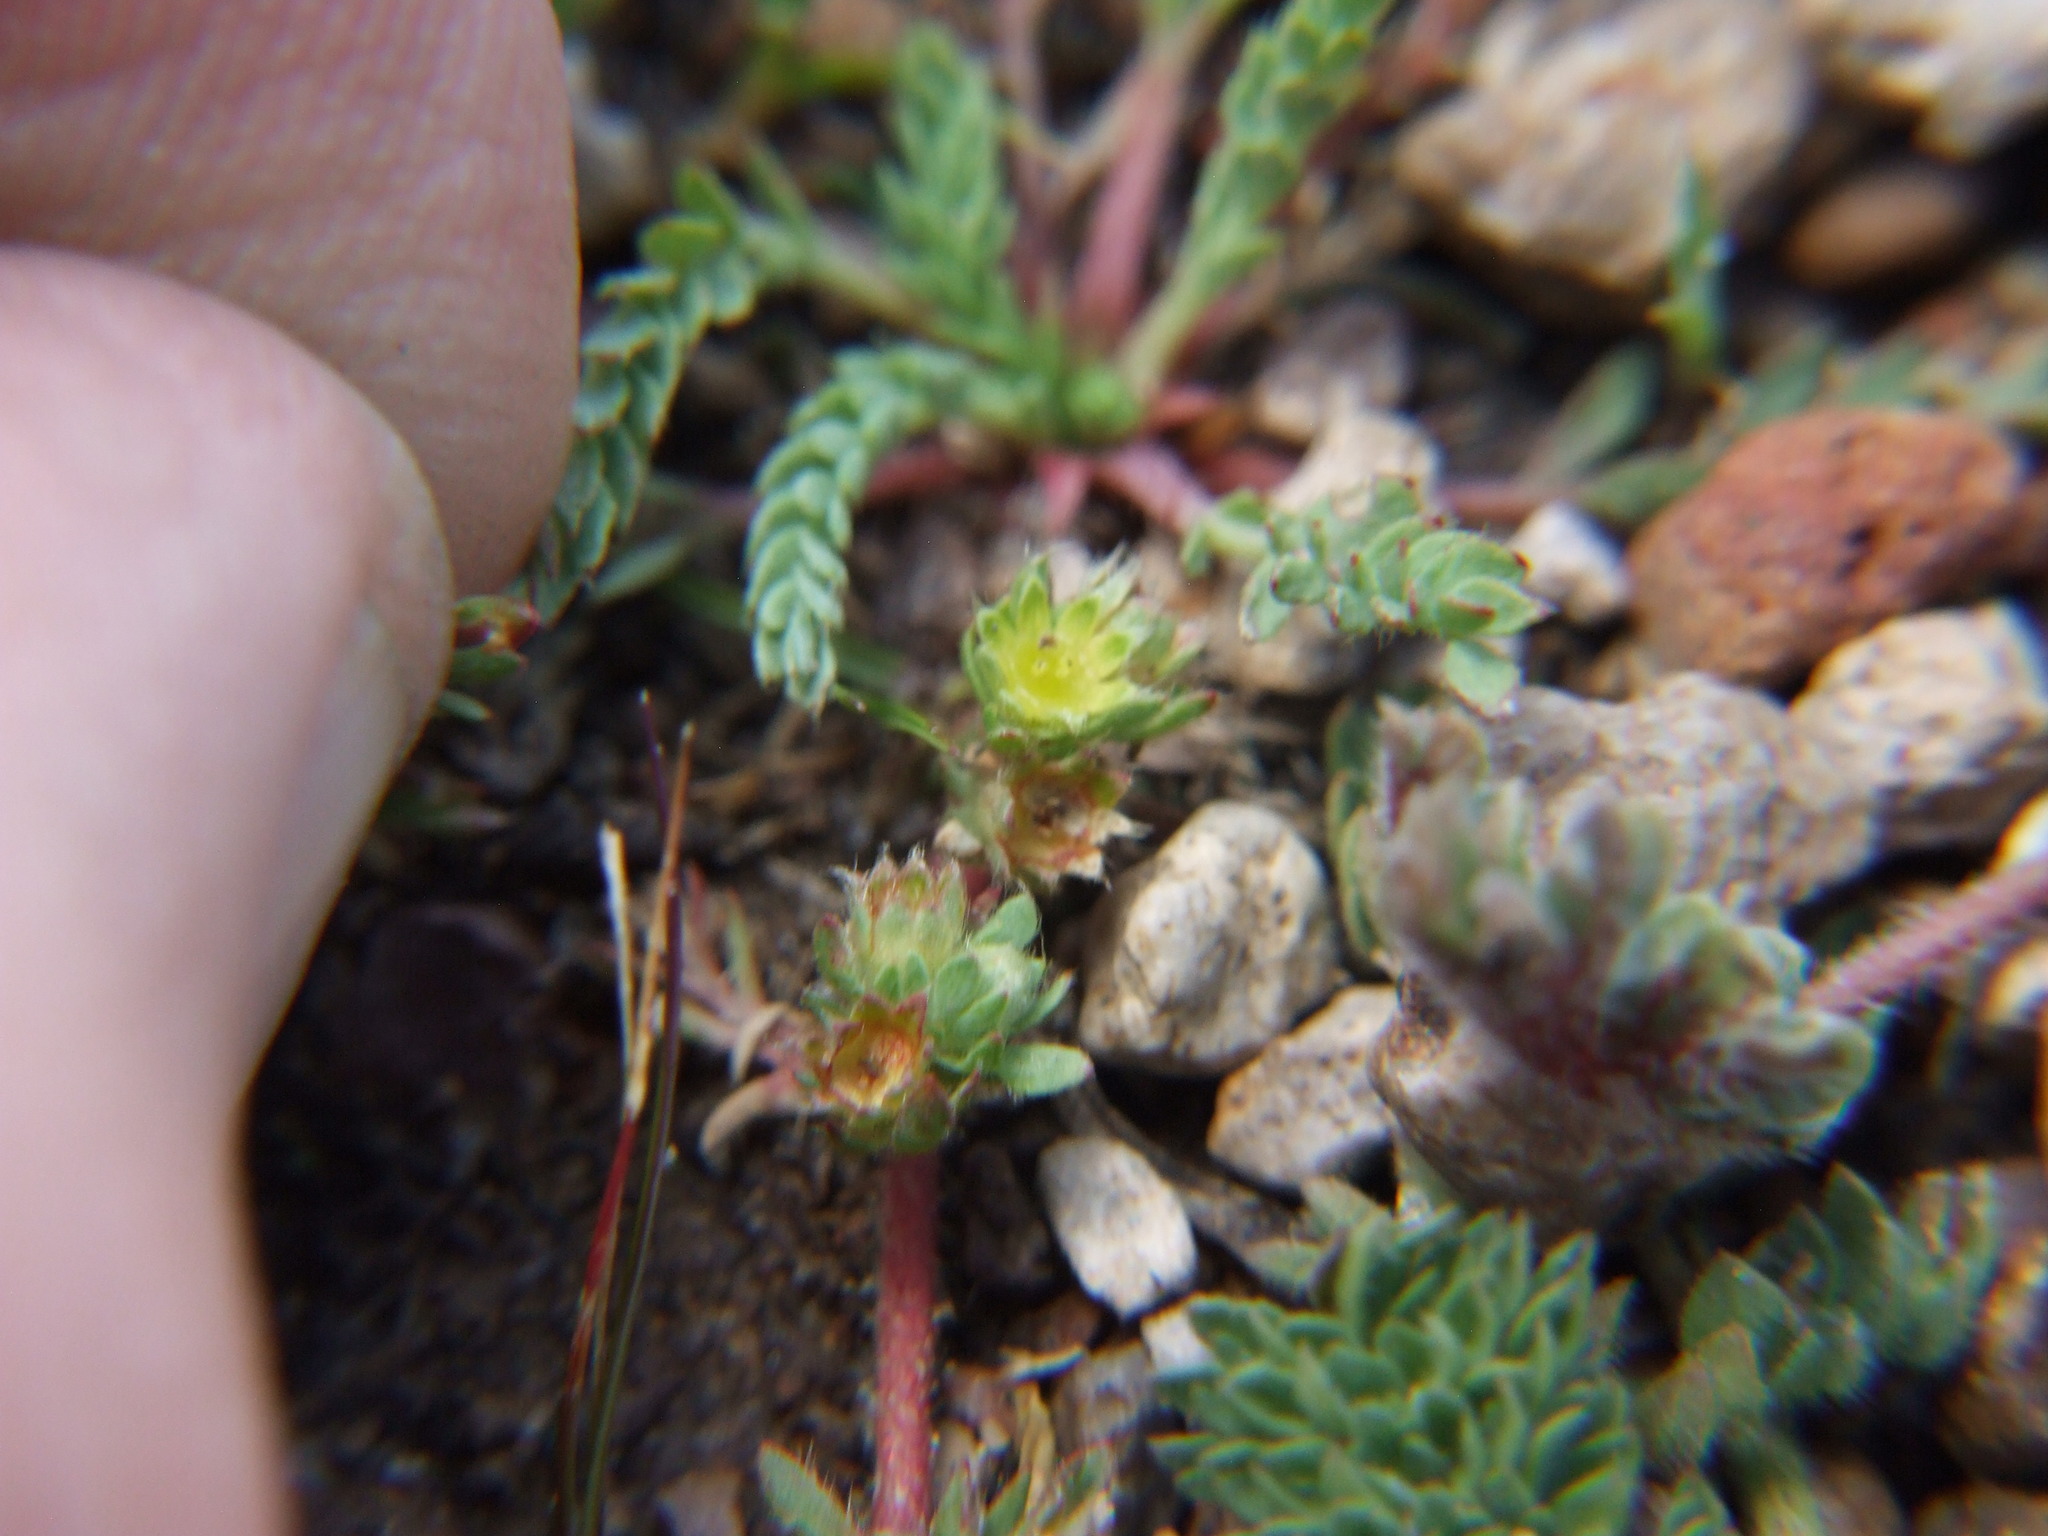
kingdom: Plantae
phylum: Tracheophyta
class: Magnoliopsida
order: Rosales
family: Rosaceae
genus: Lachemilla
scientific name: Lachemilla
